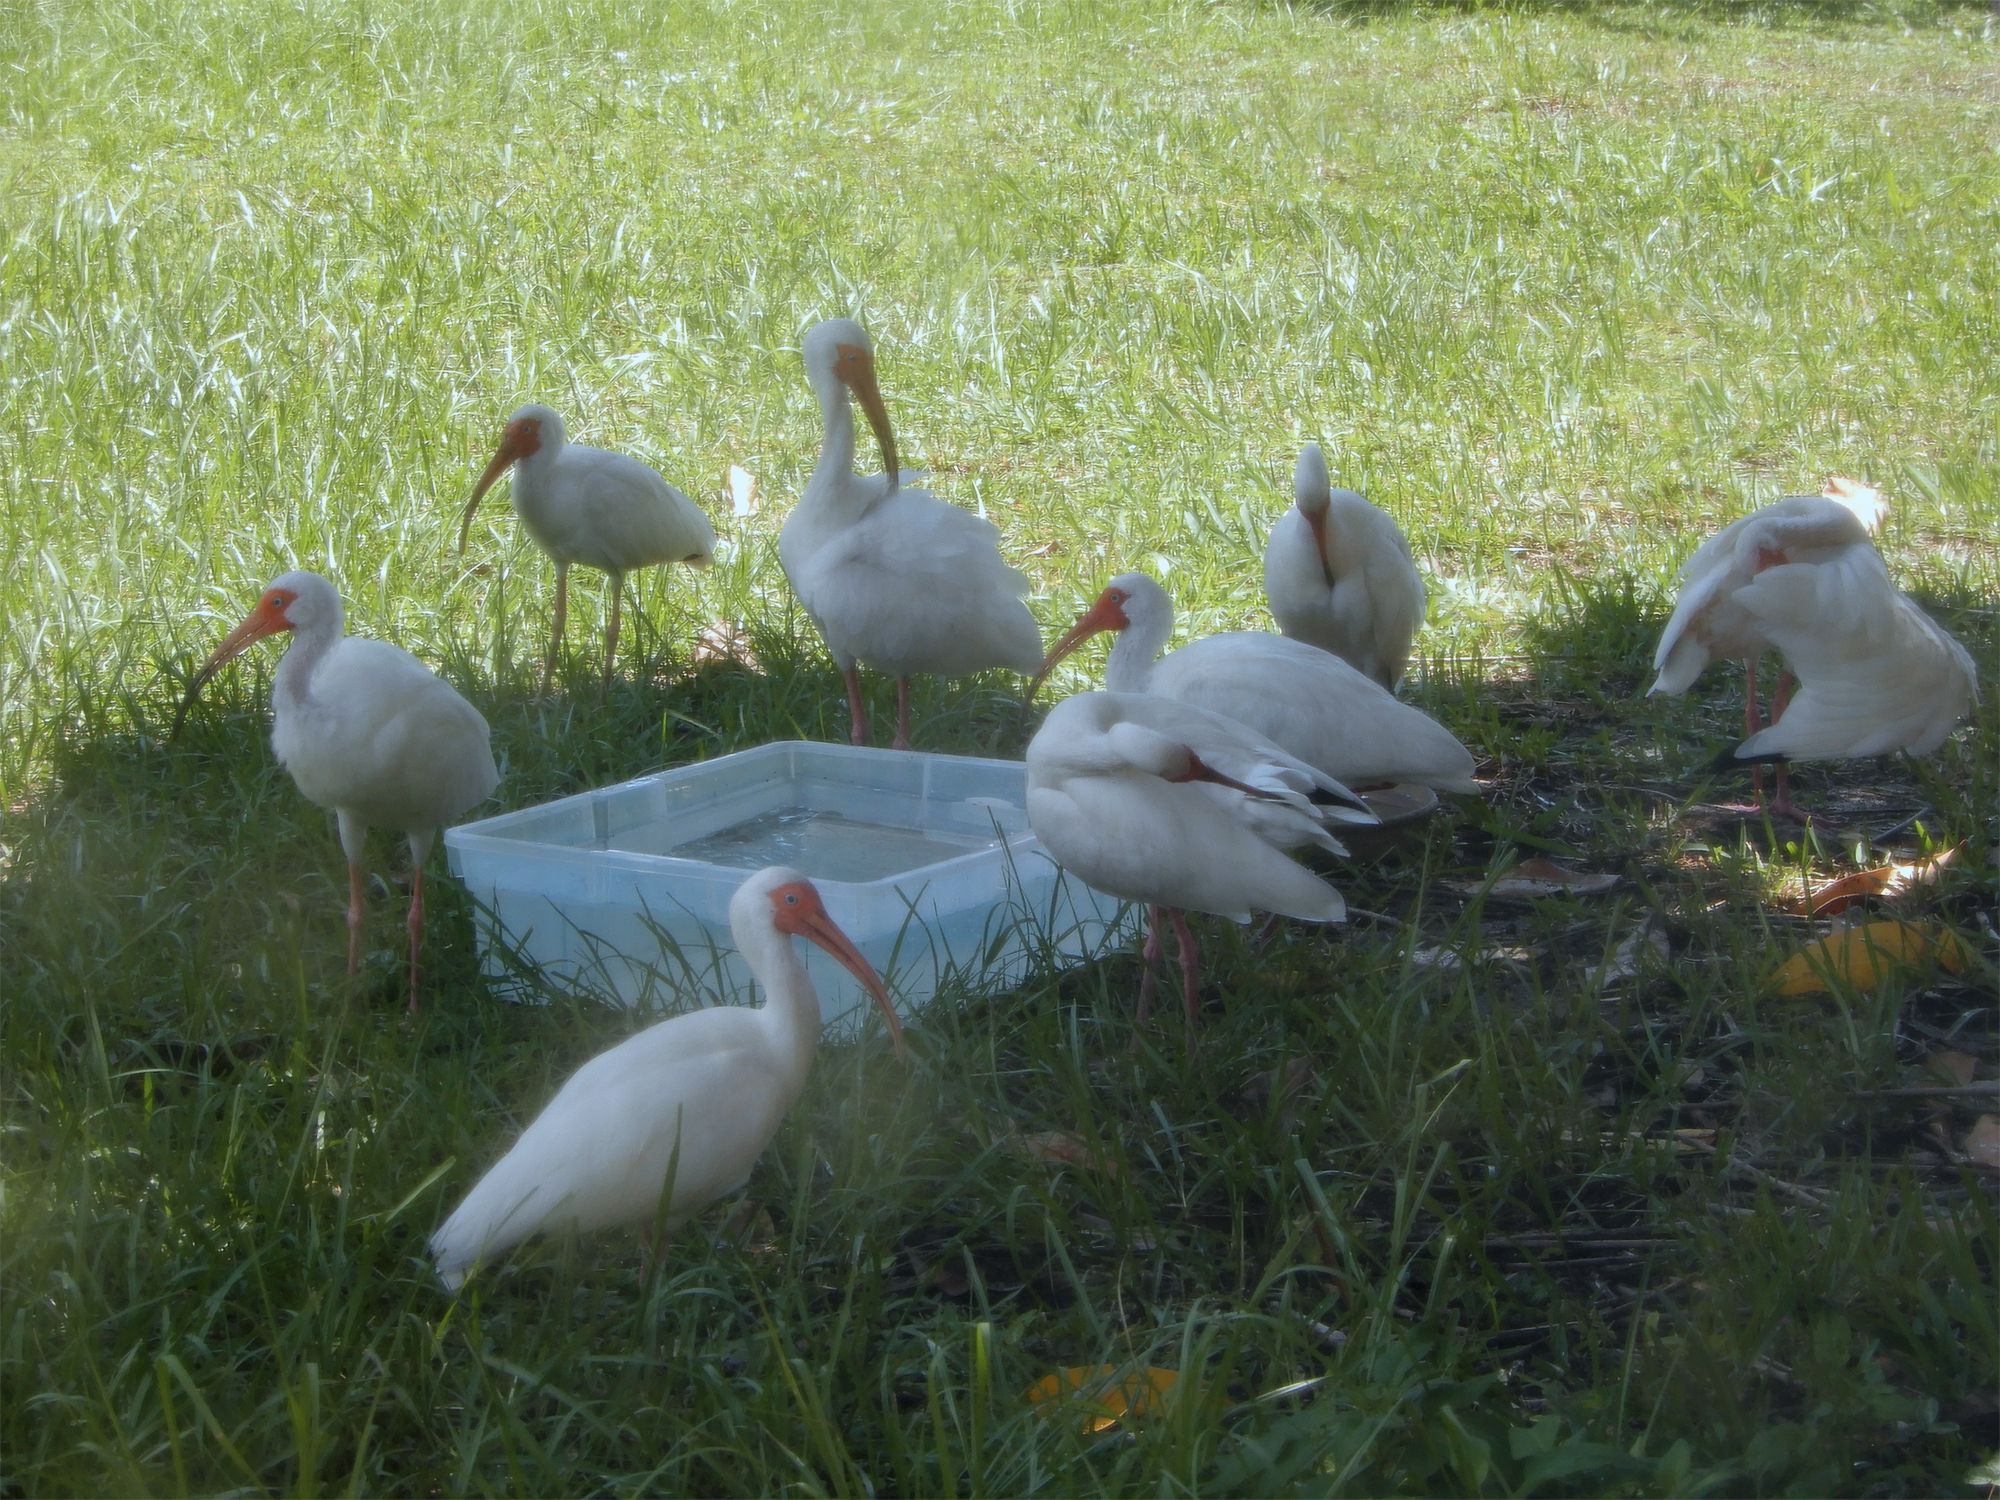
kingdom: Animalia
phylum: Chordata
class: Aves
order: Pelecaniformes
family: Threskiornithidae
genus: Eudocimus
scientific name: Eudocimus albus
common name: White ibis
